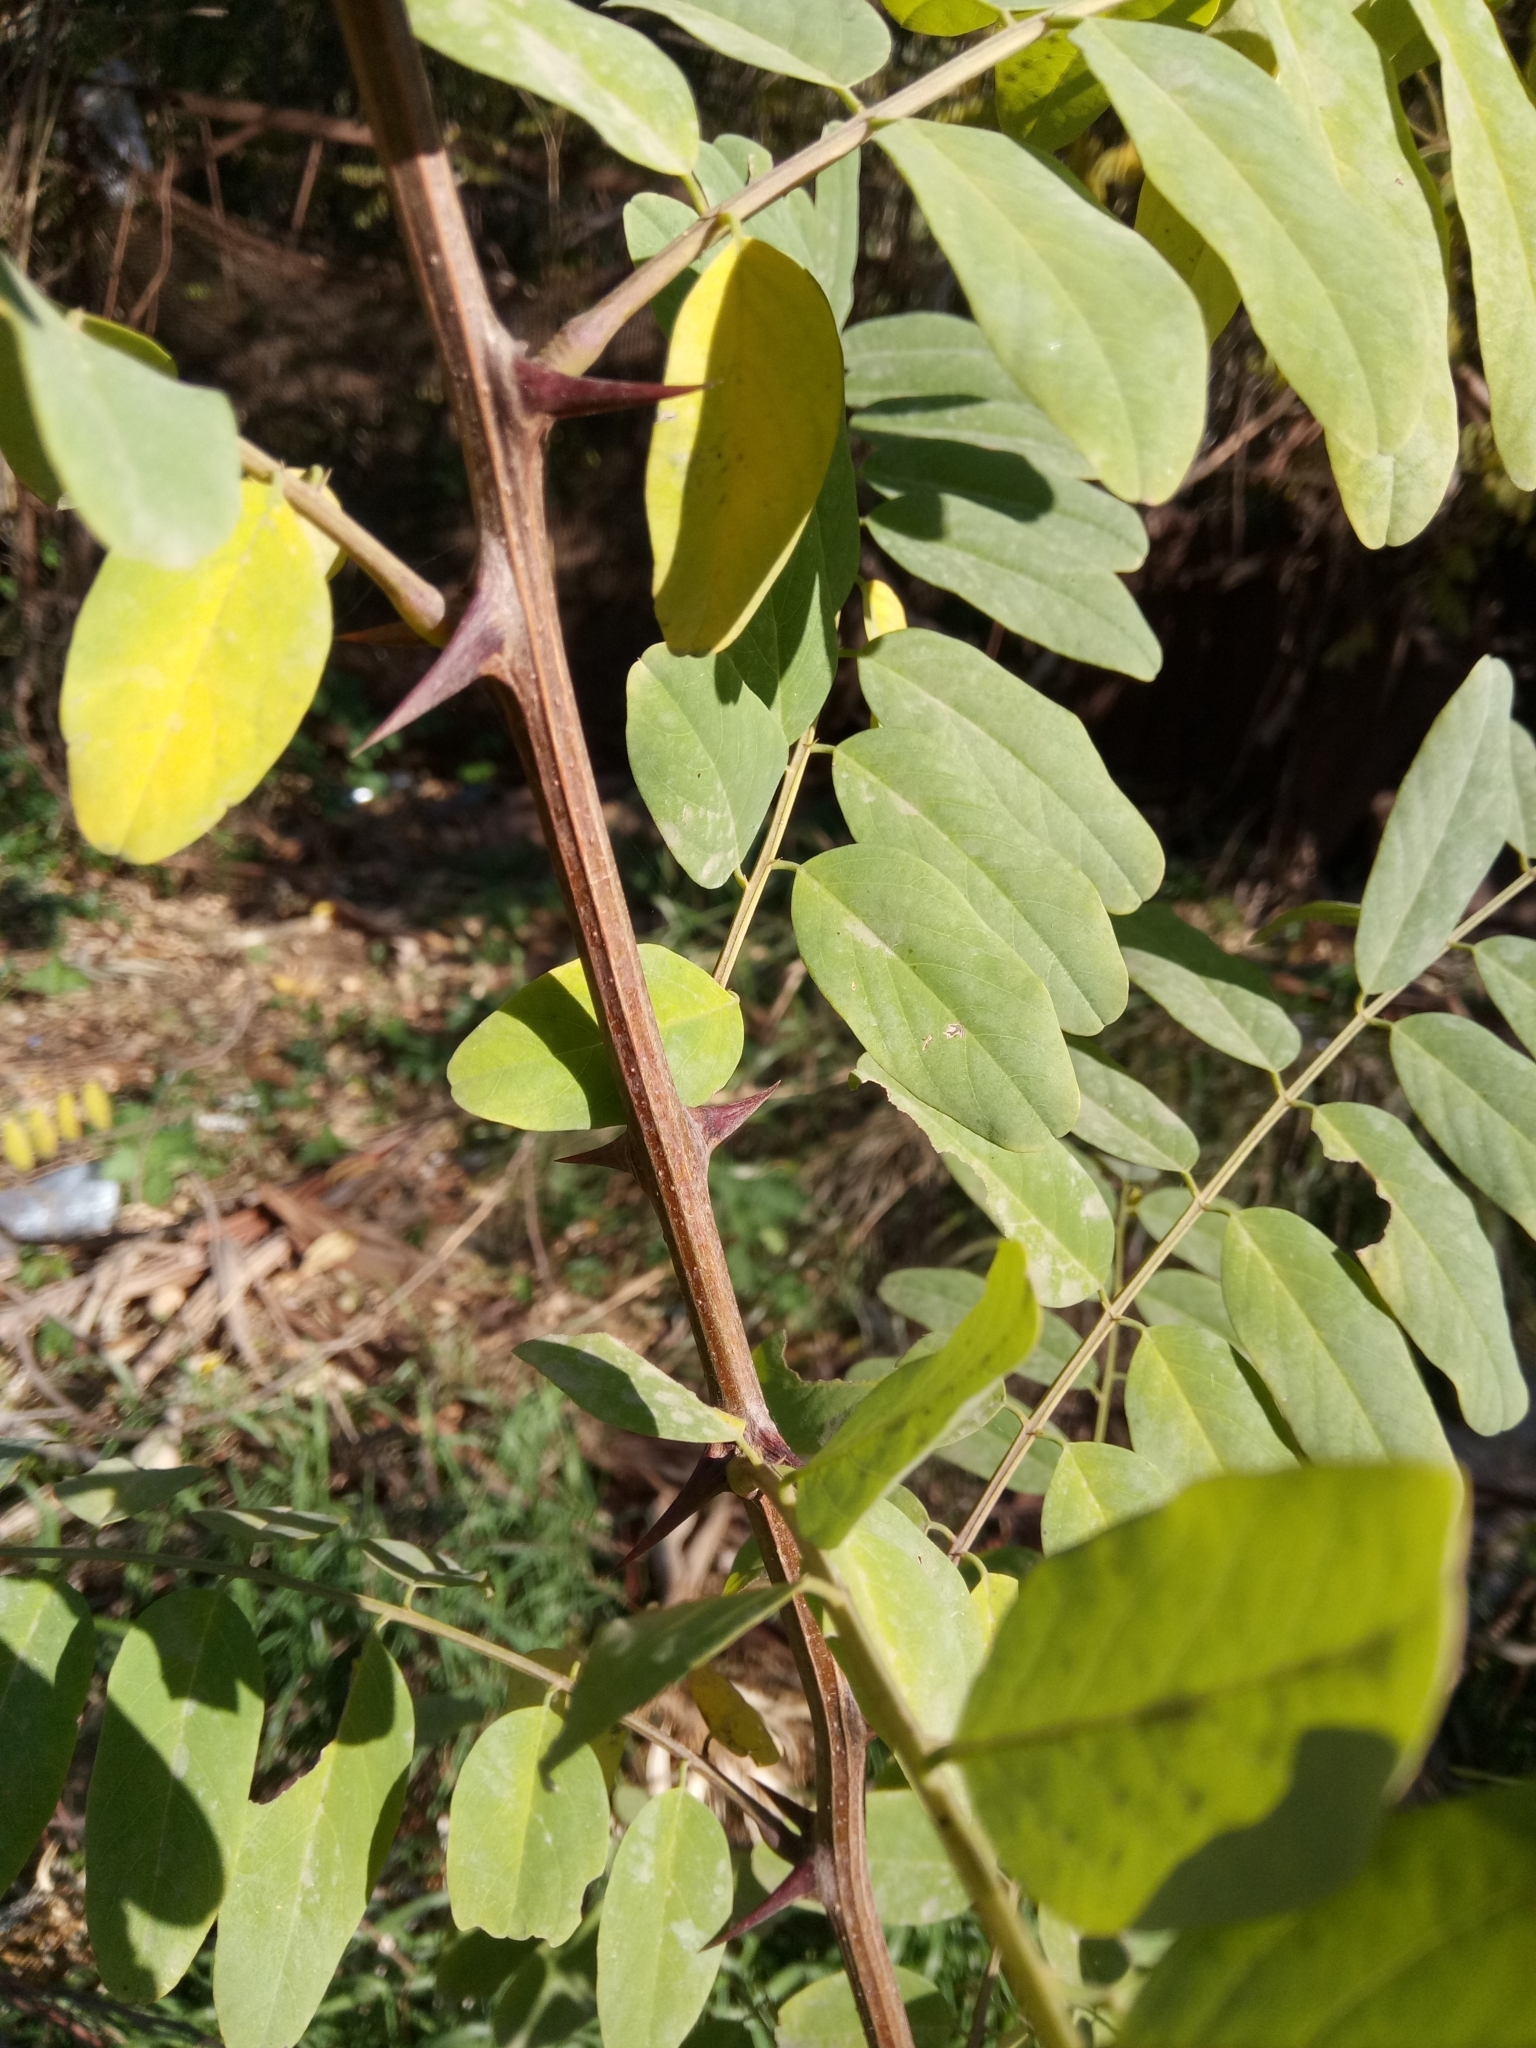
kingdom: Plantae
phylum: Tracheophyta
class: Magnoliopsida
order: Fabales
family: Fabaceae
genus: Robinia
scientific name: Robinia pseudoacacia
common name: Black locust
